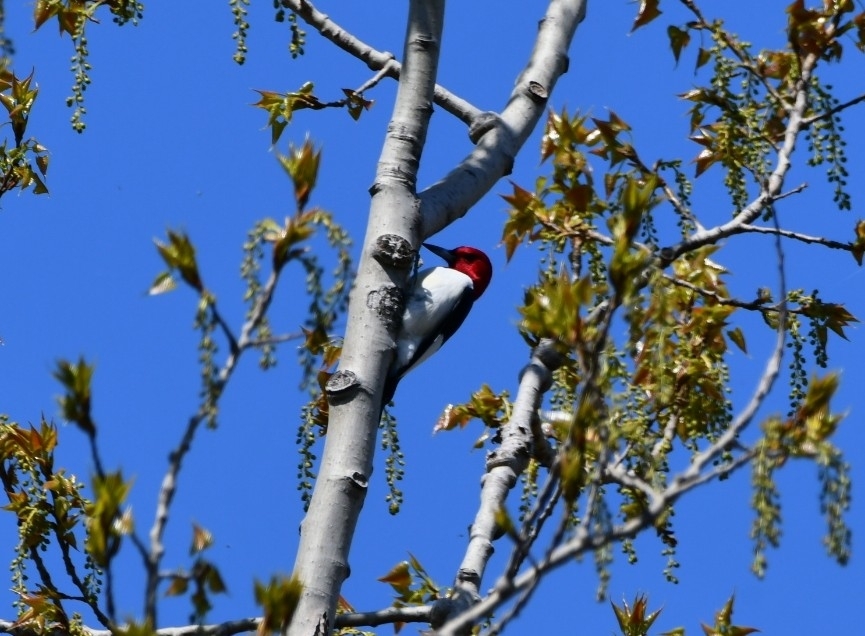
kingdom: Animalia
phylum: Chordata
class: Aves
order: Piciformes
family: Picidae
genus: Melanerpes
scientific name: Melanerpes erythrocephalus
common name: Red-headed woodpecker
